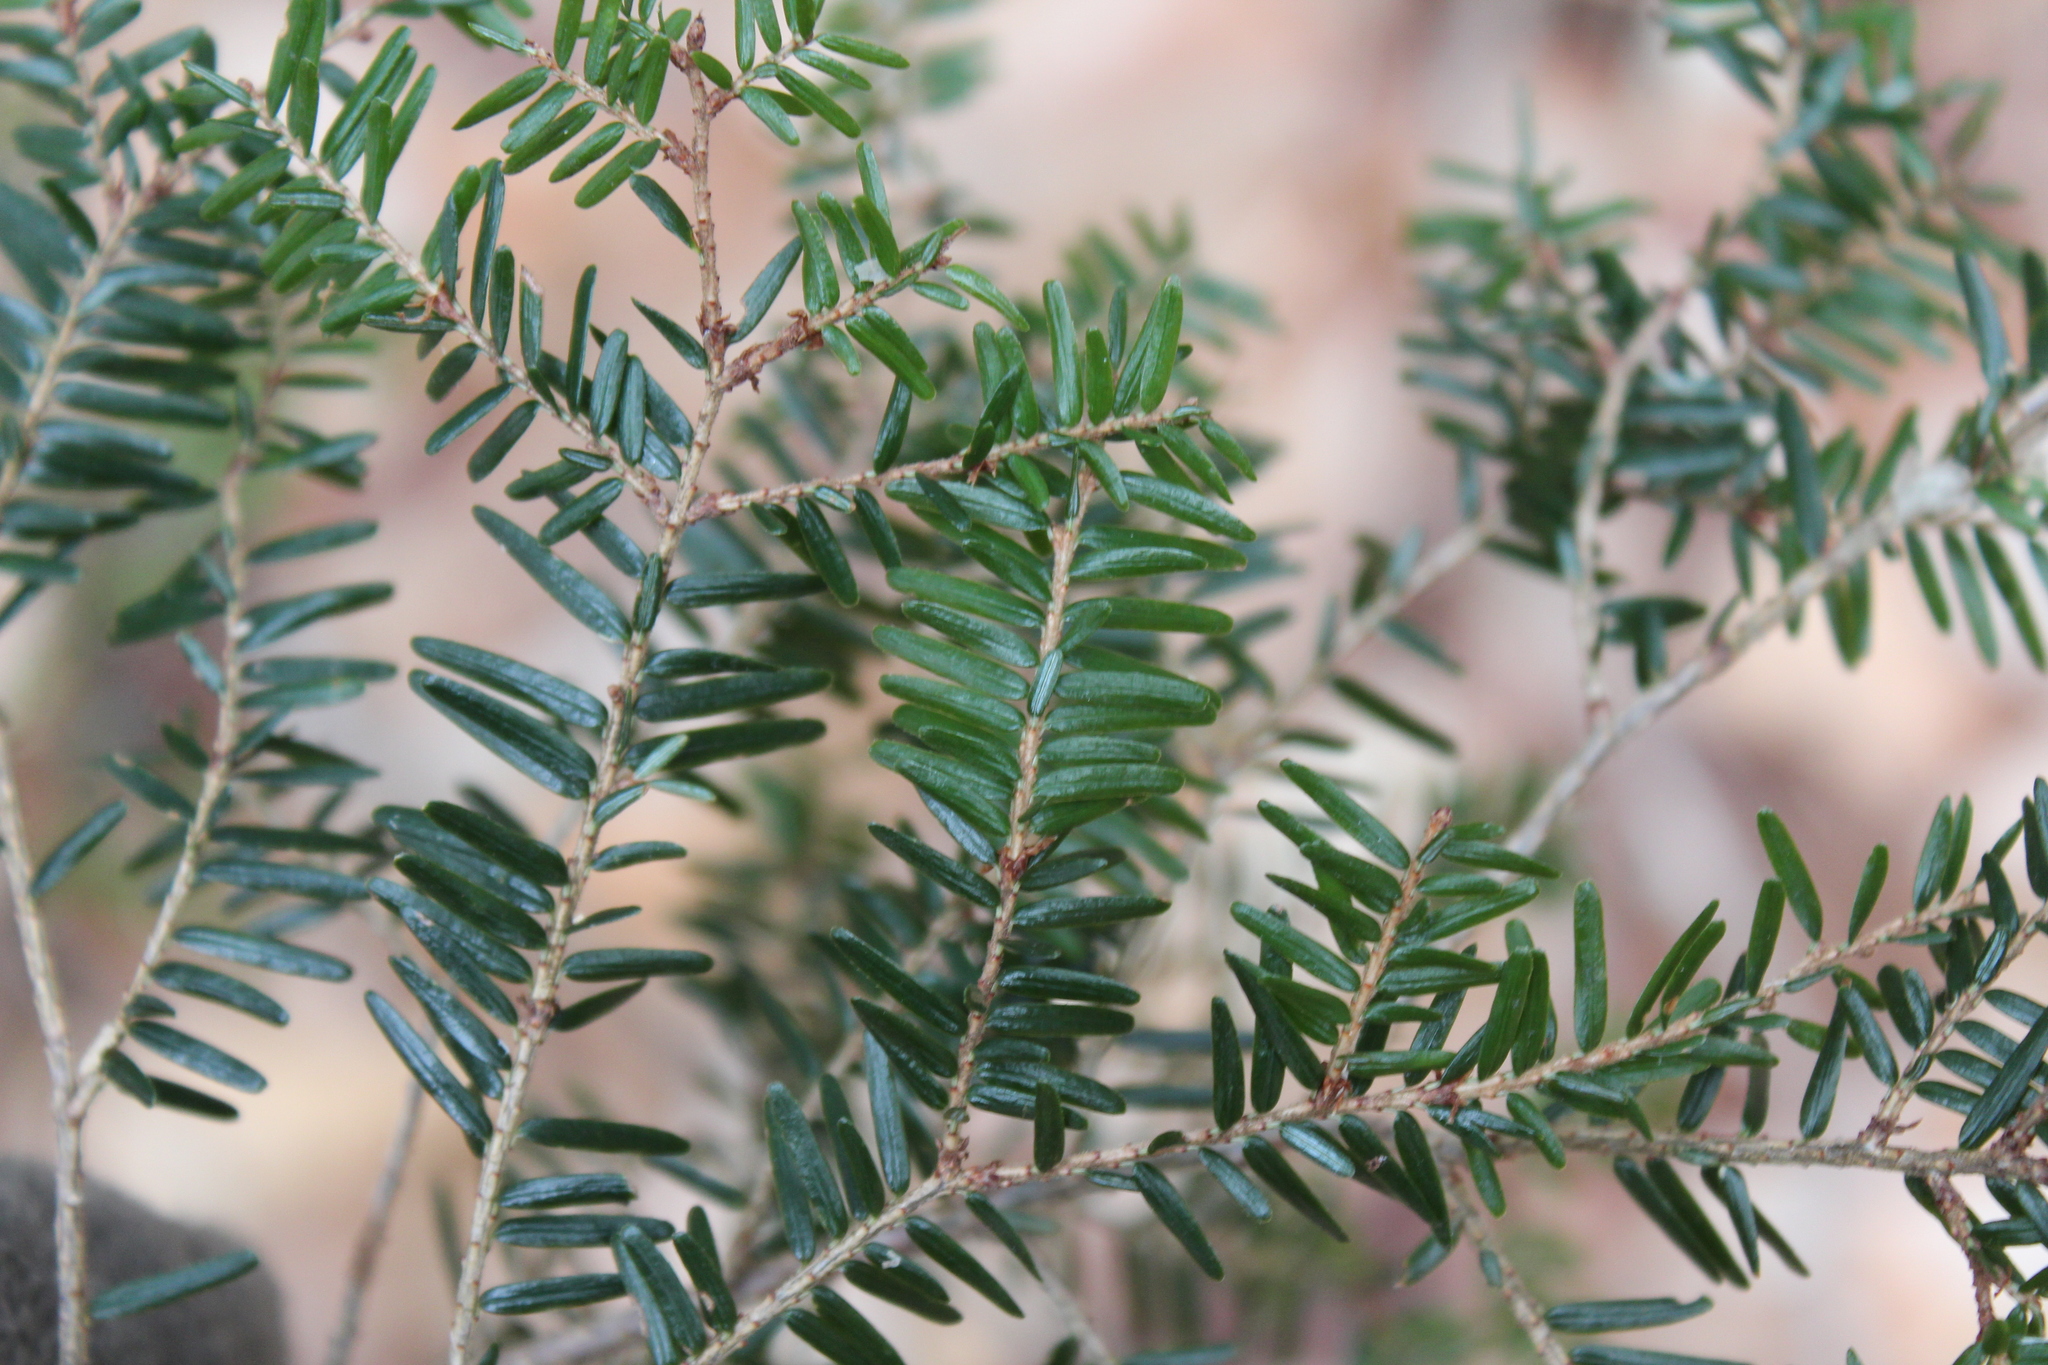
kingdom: Plantae
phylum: Tracheophyta
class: Pinopsida
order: Pinales
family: Pinaceae
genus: Tsuga
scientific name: Tsuga canadensis
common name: Eastern hemlock
